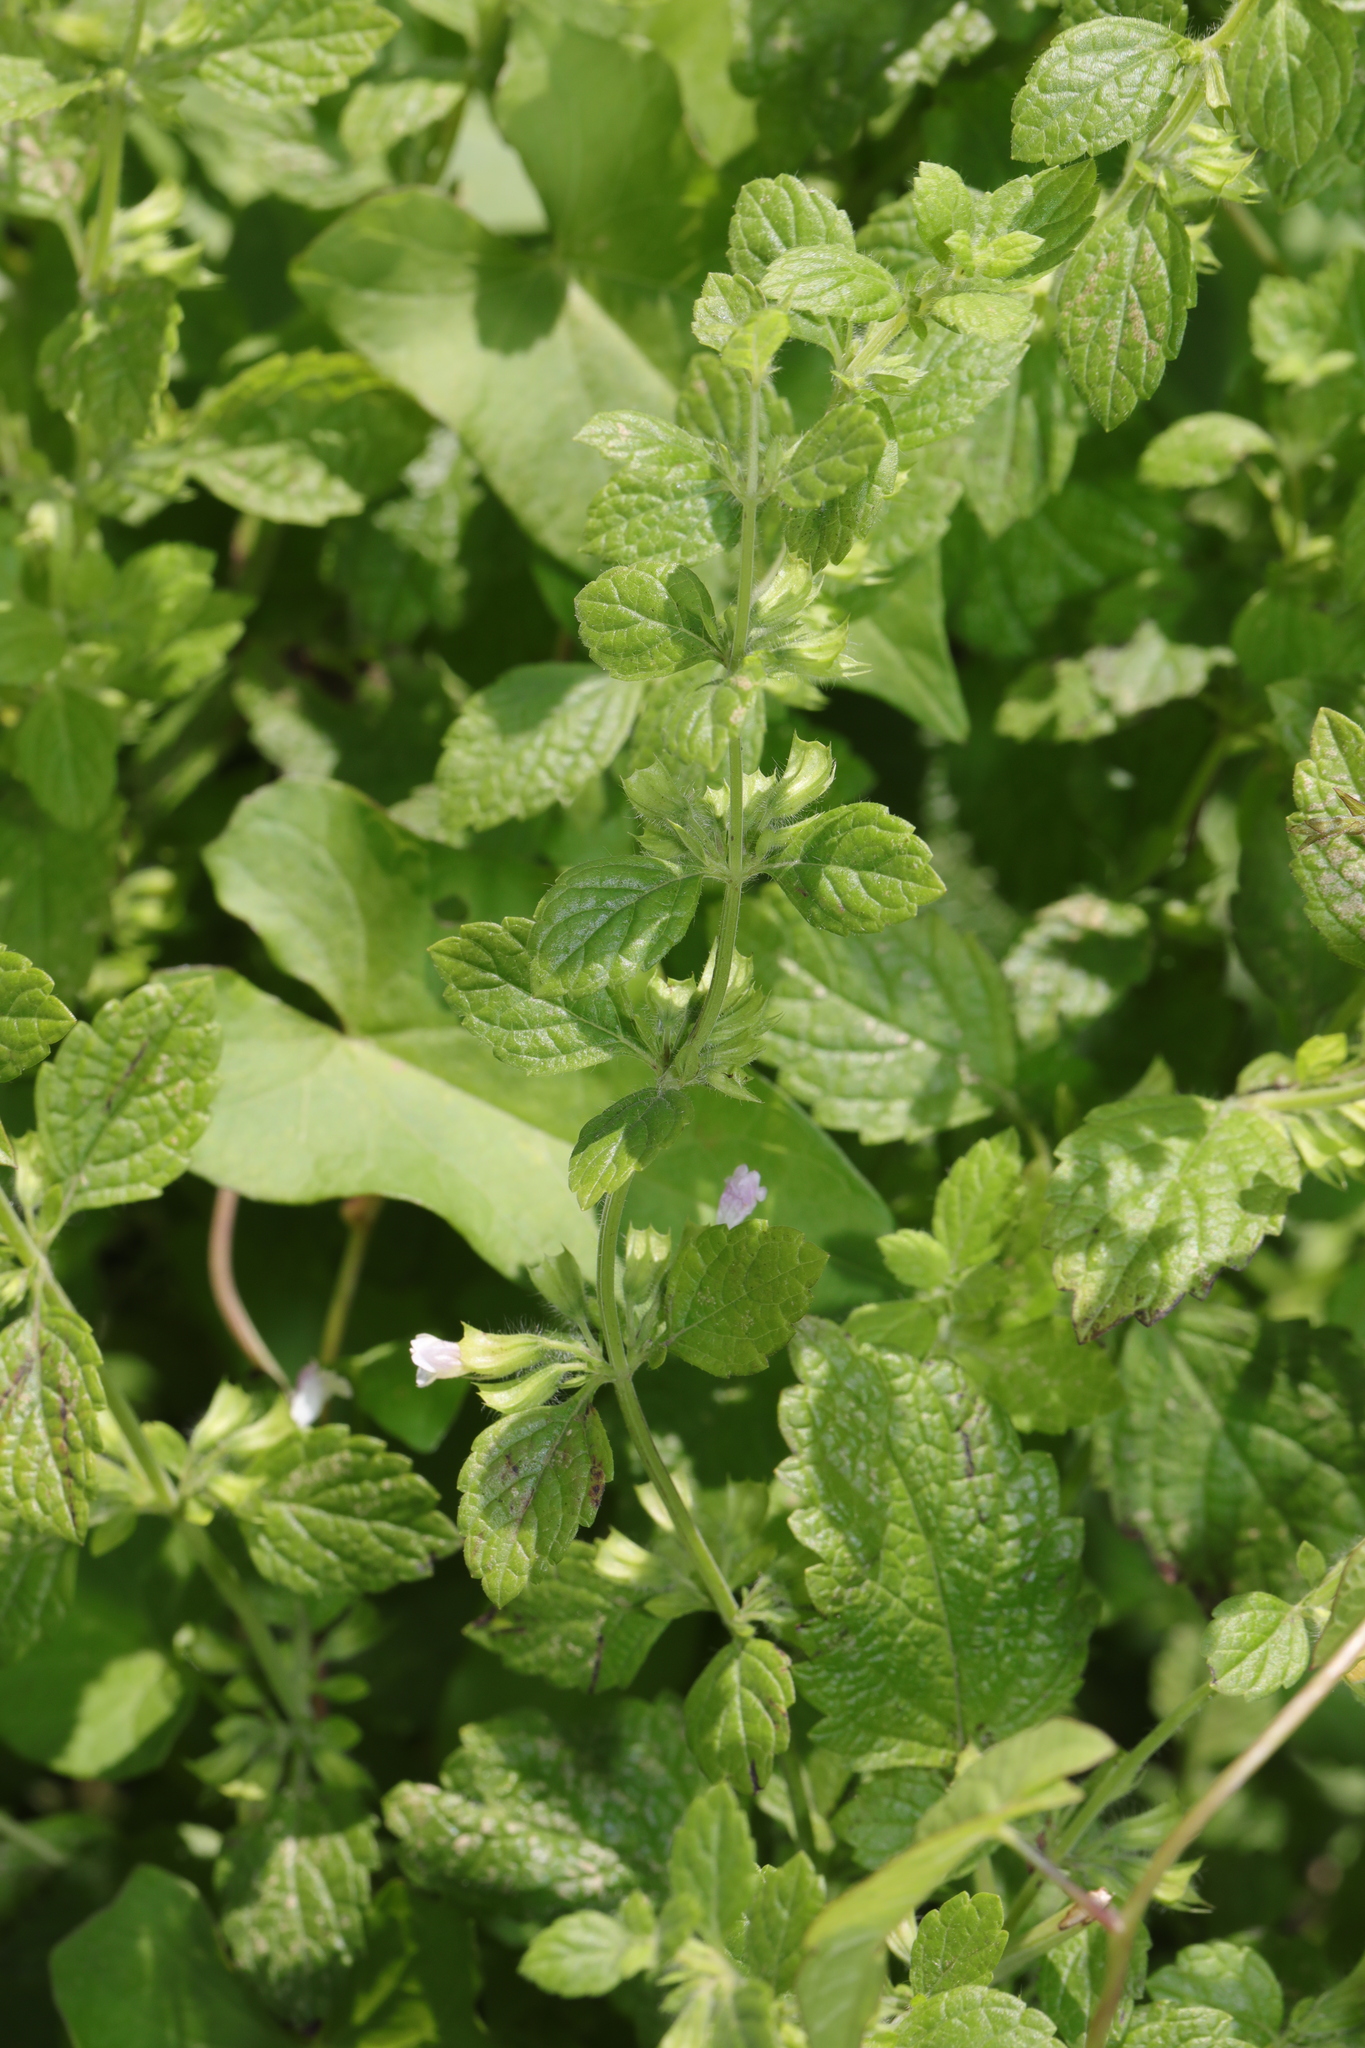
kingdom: Plantae
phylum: Tracheophyta
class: Magnoliopsida
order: Lamiales
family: Lamiaceae
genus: Melissa
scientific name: Melissa officinalis
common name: Balm
